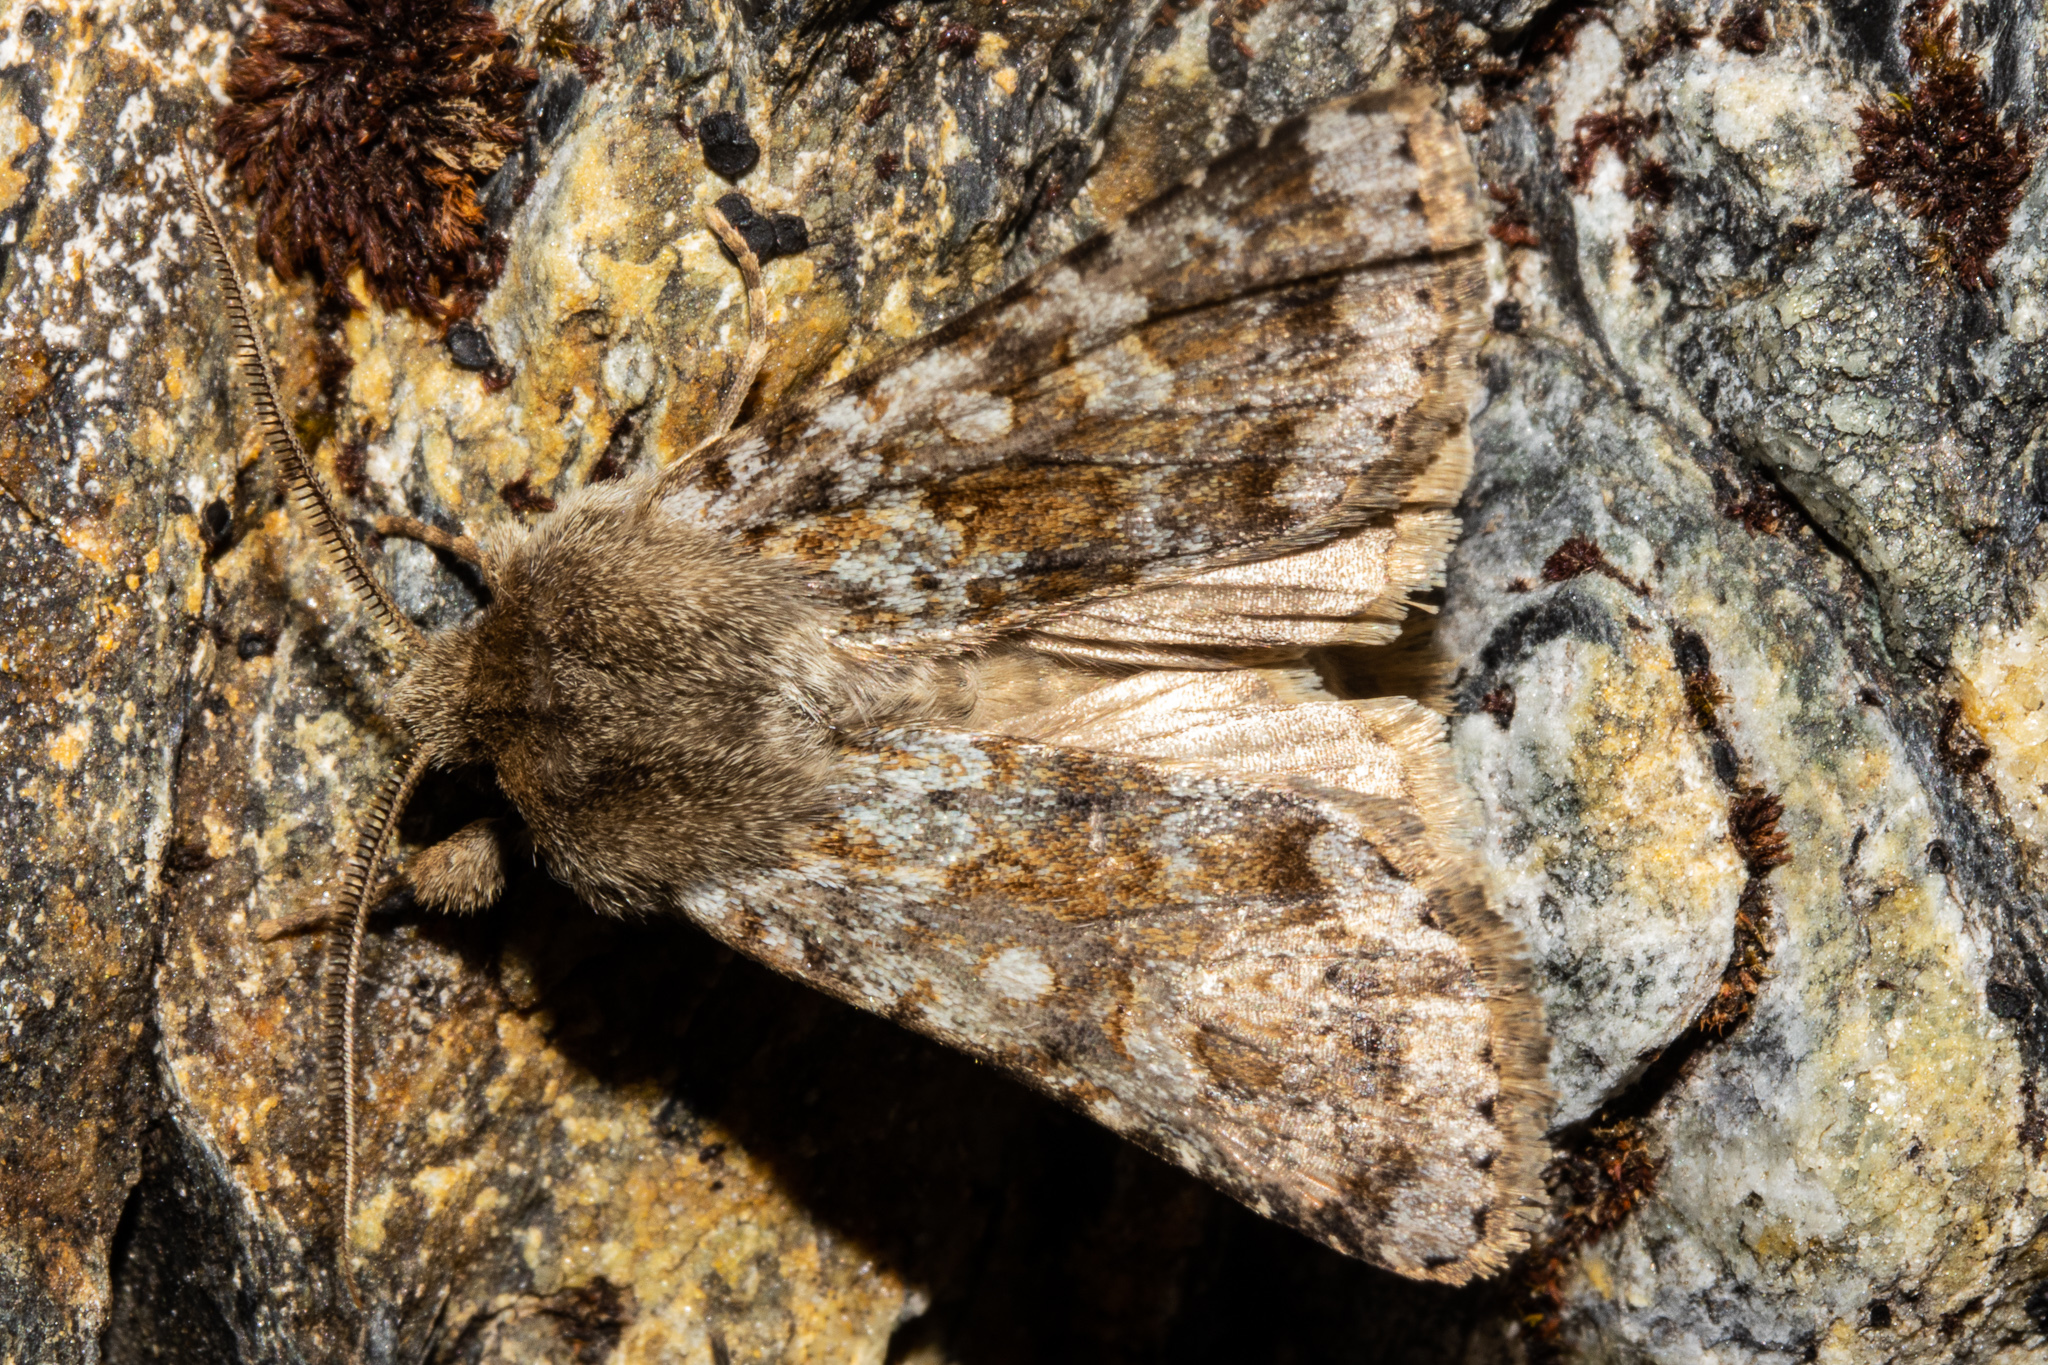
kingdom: Animalia
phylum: Arthropoda
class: Insecta
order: Lepidoptera
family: Noctuidae
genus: Ichneutica
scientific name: Ichneutica
